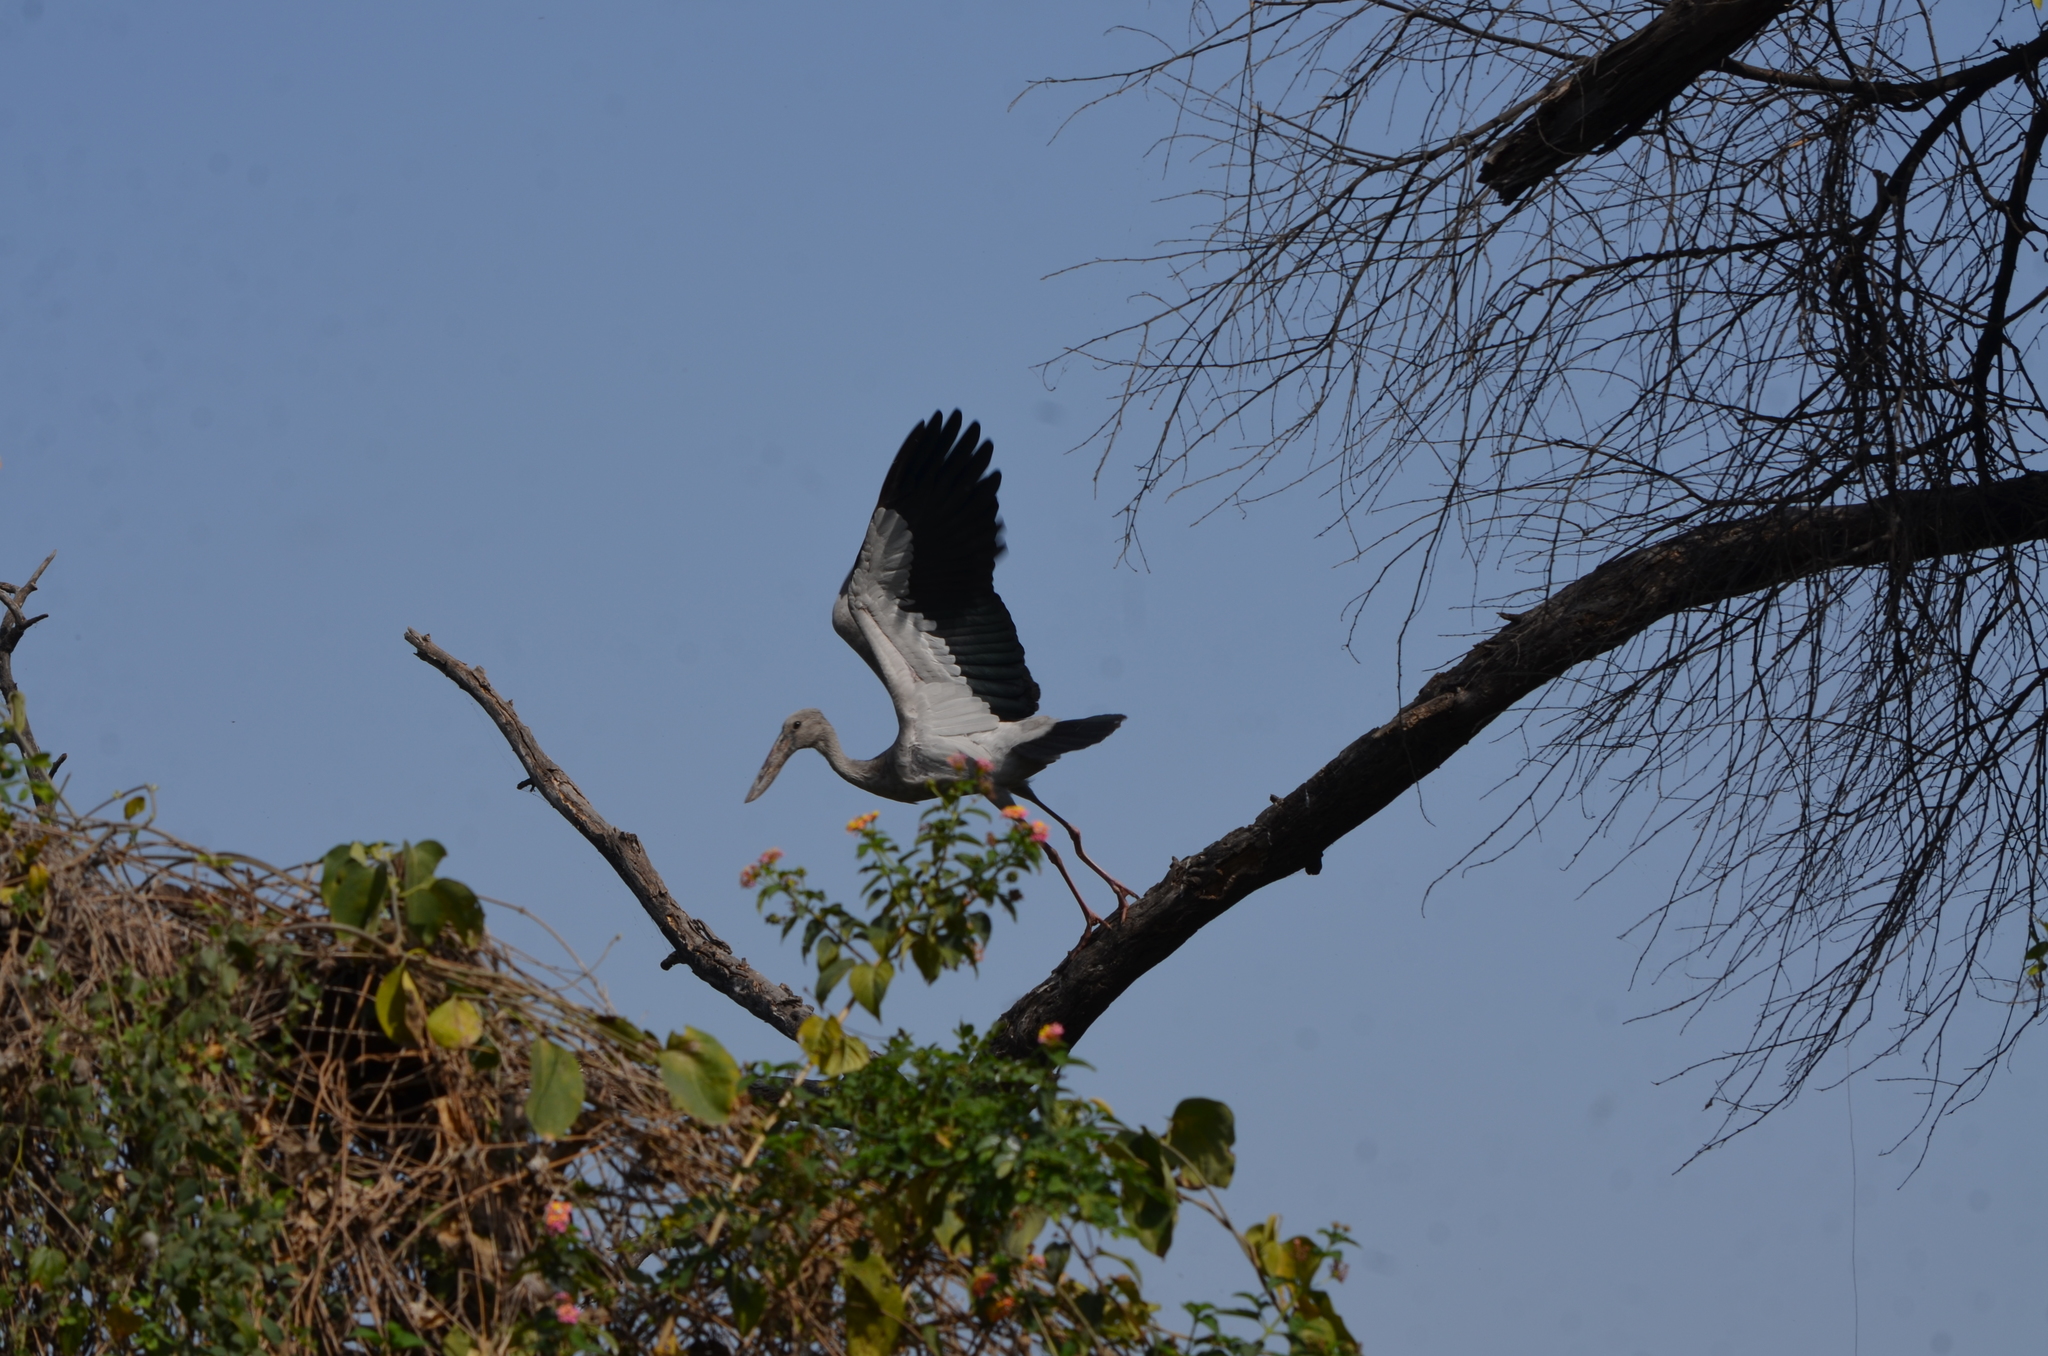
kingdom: Animalia
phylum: Chordata
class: Aves
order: Ciconiiformes
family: Ciconiidae
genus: Anastomus
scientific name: Anastomus oscitans
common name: Asian openbill
